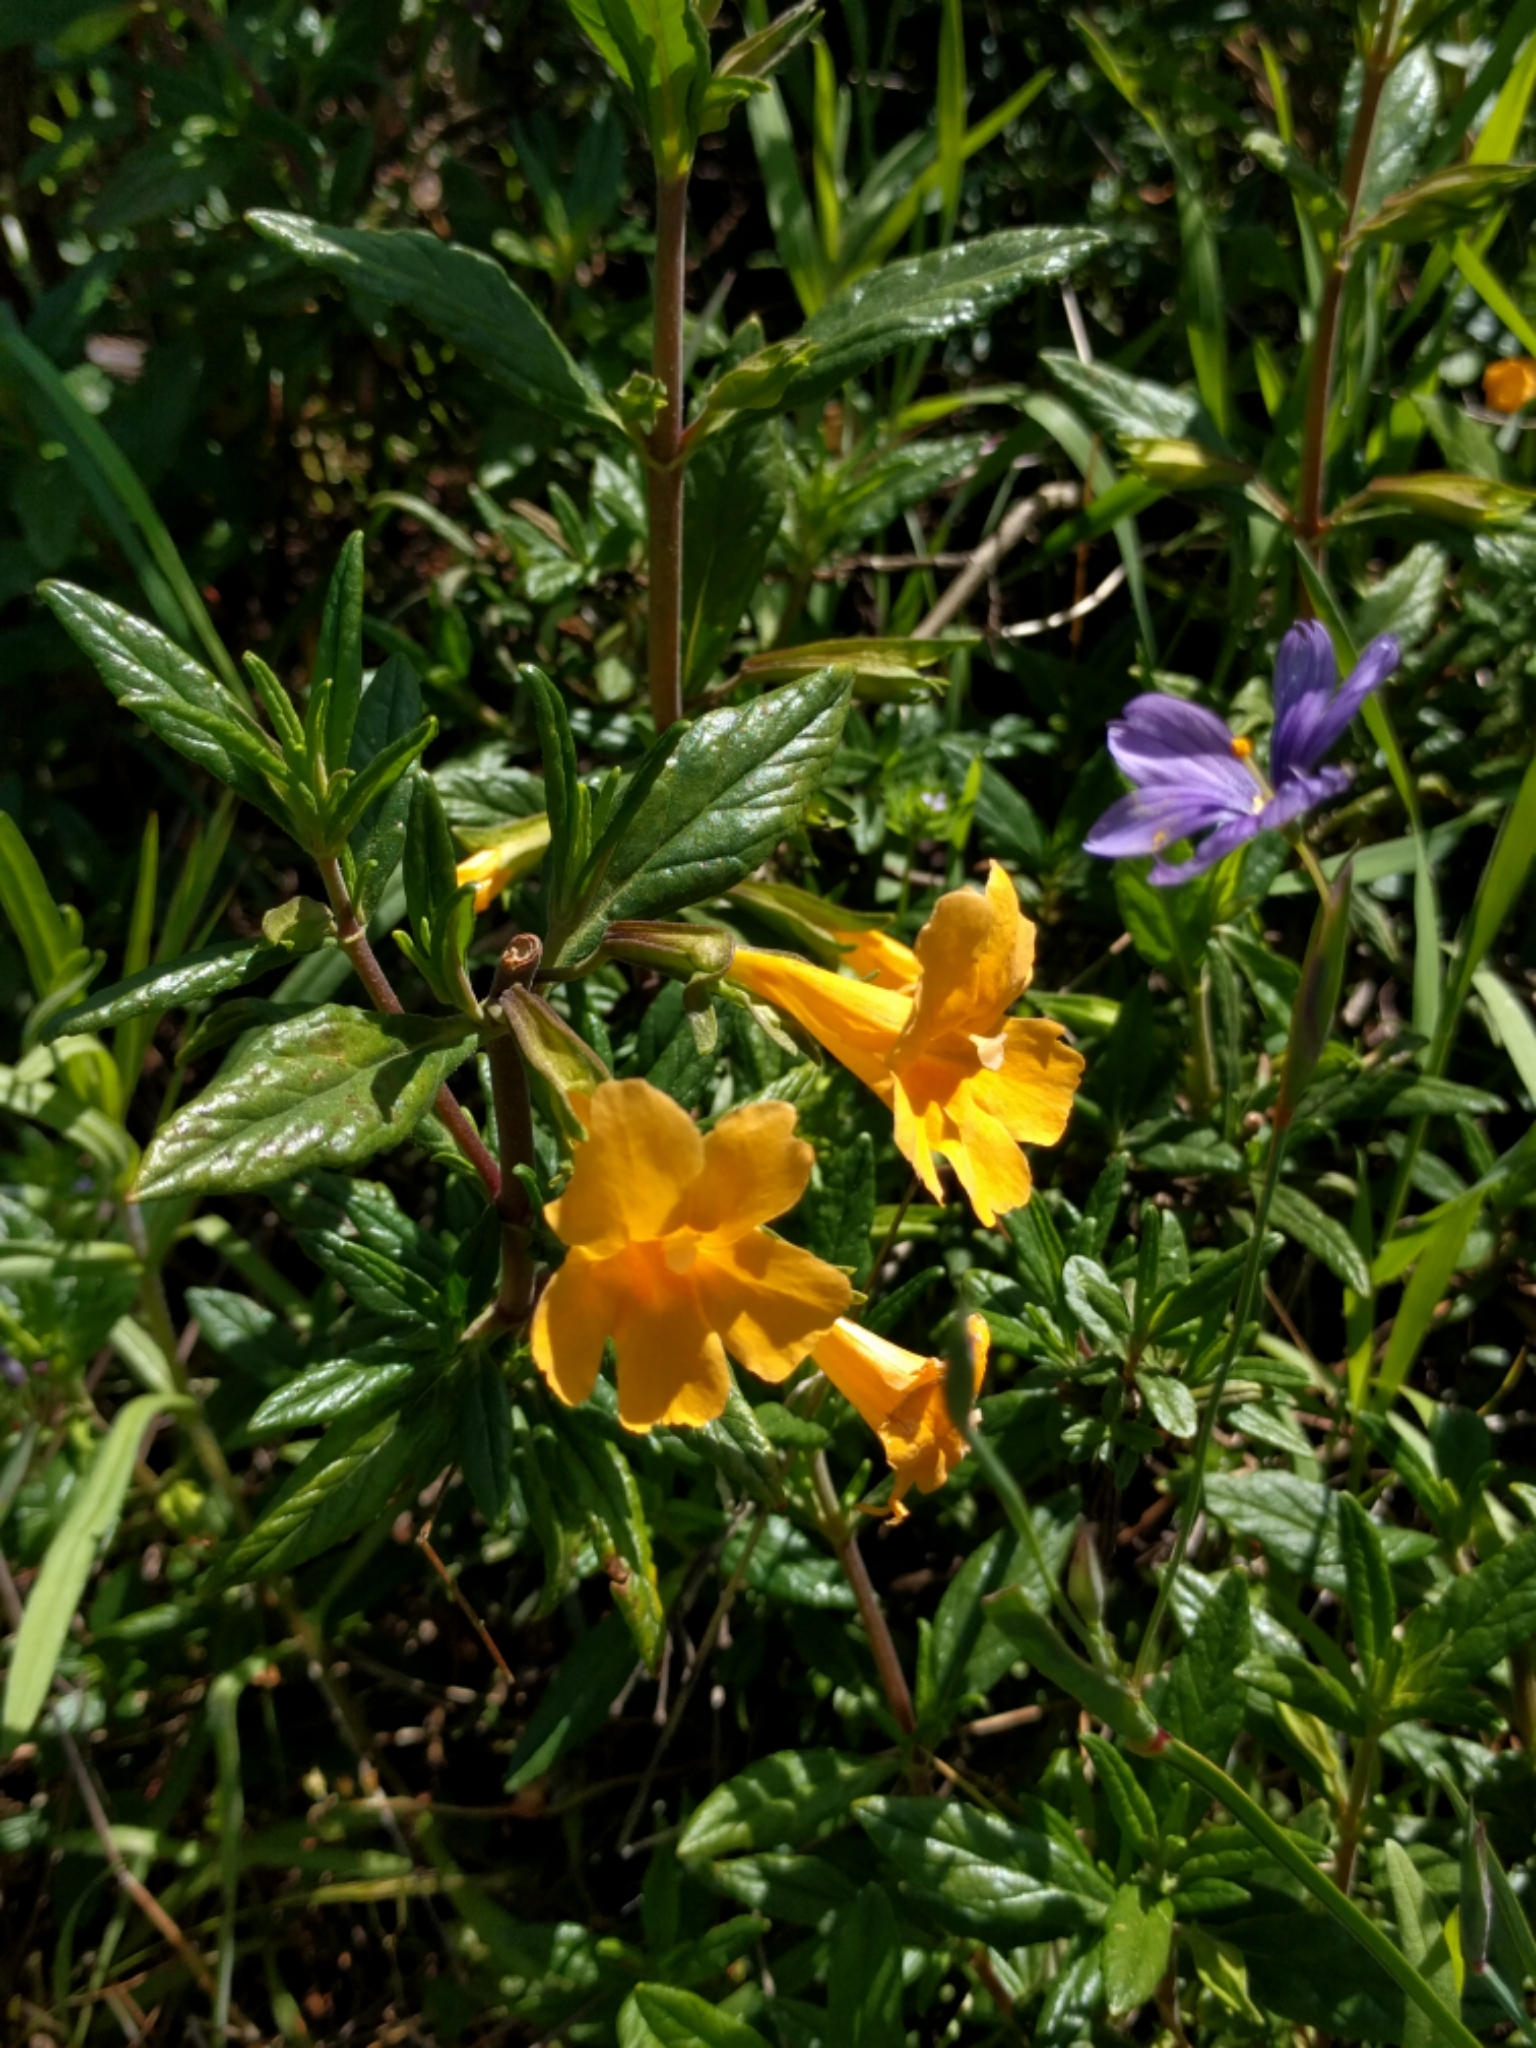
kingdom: Plantae
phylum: Tracheophyta
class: Magnoliopsida
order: Lamiales
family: Phrymaceae
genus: Diplacus
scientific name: Diplacus aurantiacus
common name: Bush monkey-flower
